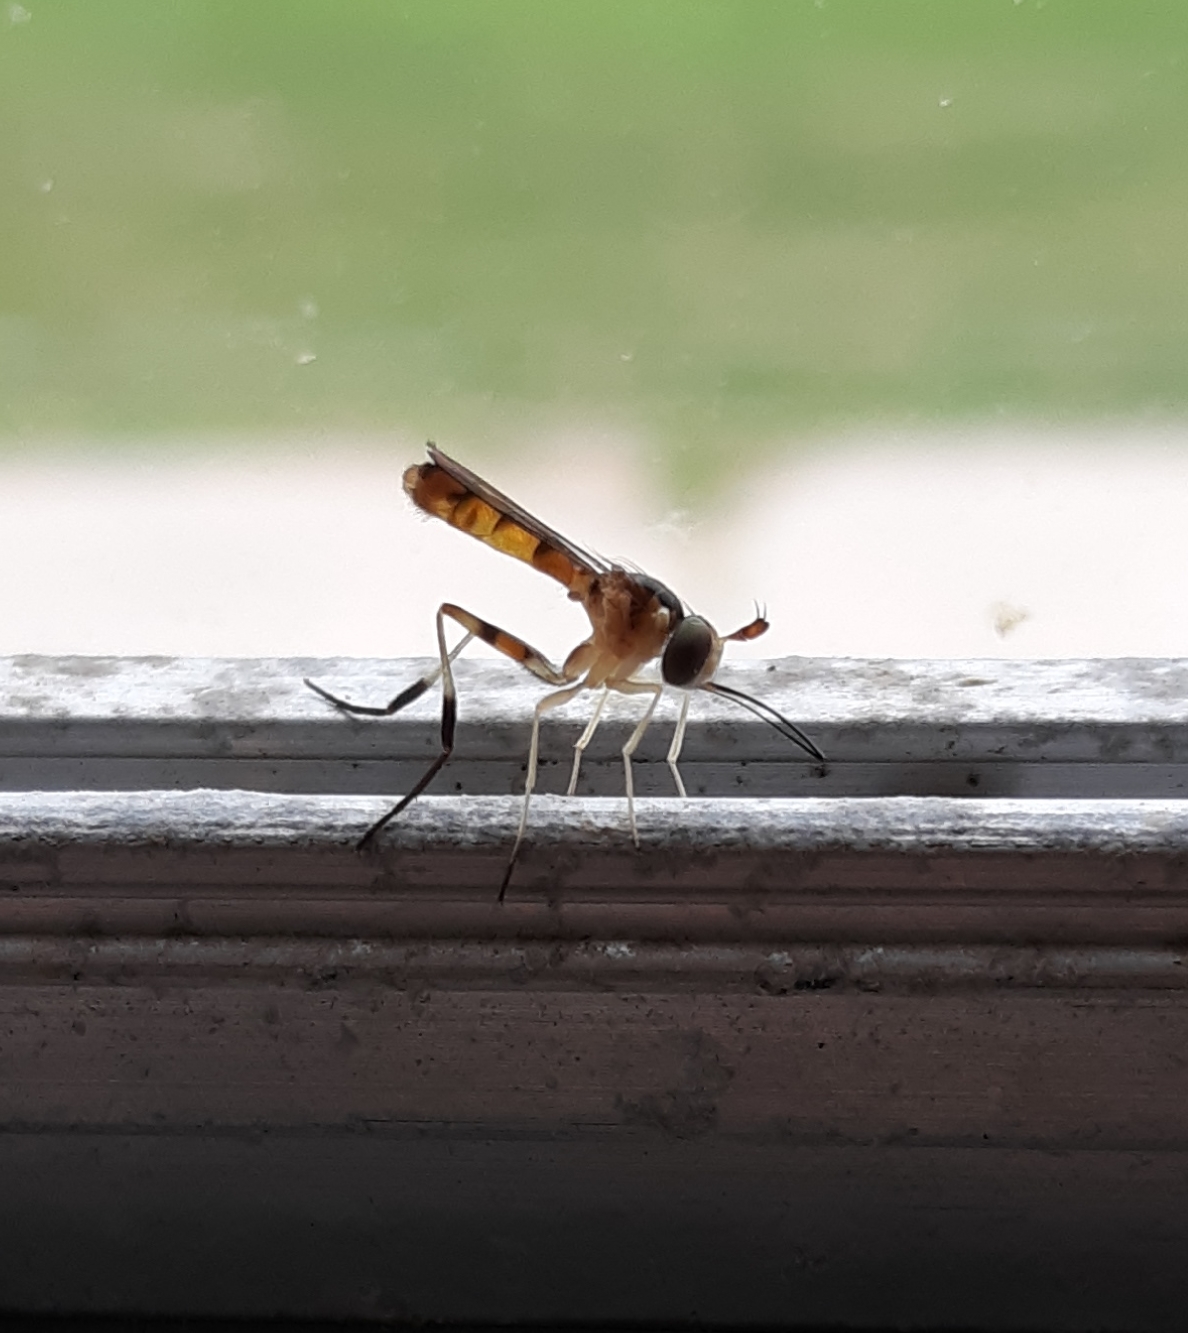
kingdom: Animalia
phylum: Arthropoda
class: Insecta
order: Diptera
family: Conopidae
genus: Stylogaster
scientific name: Stylogaster biannulata
